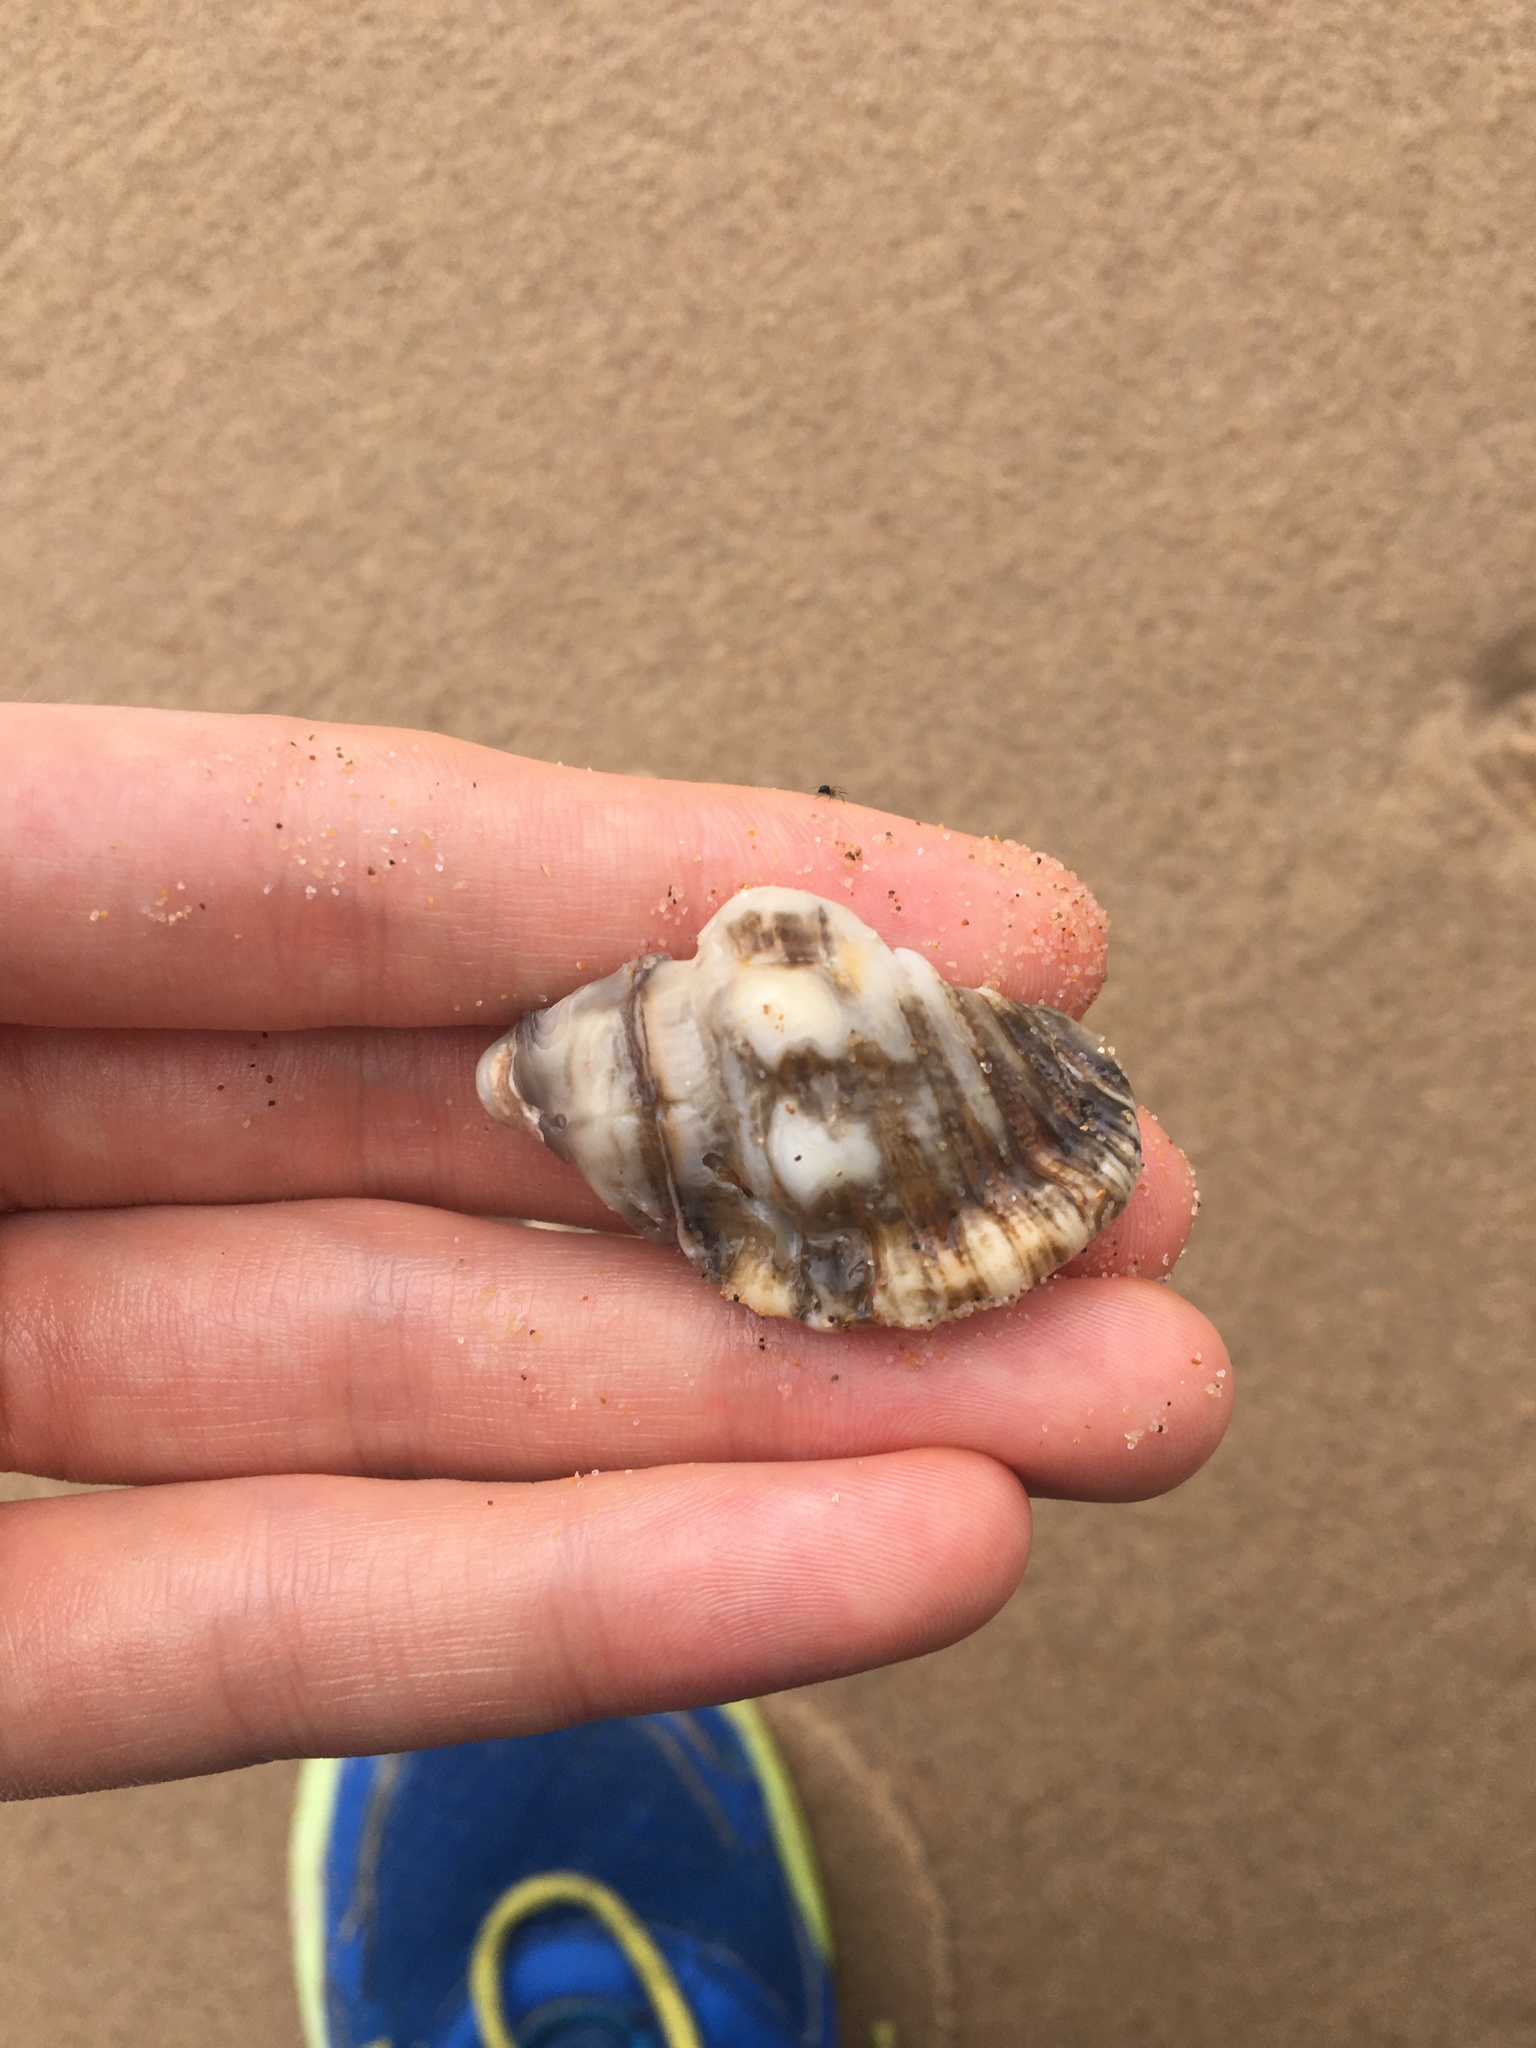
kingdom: Animalia
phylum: Mollusca
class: Gastropoda
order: Littorinimorpha
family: Cymatiidae
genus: Cabestana
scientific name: Cabestana spengleri
